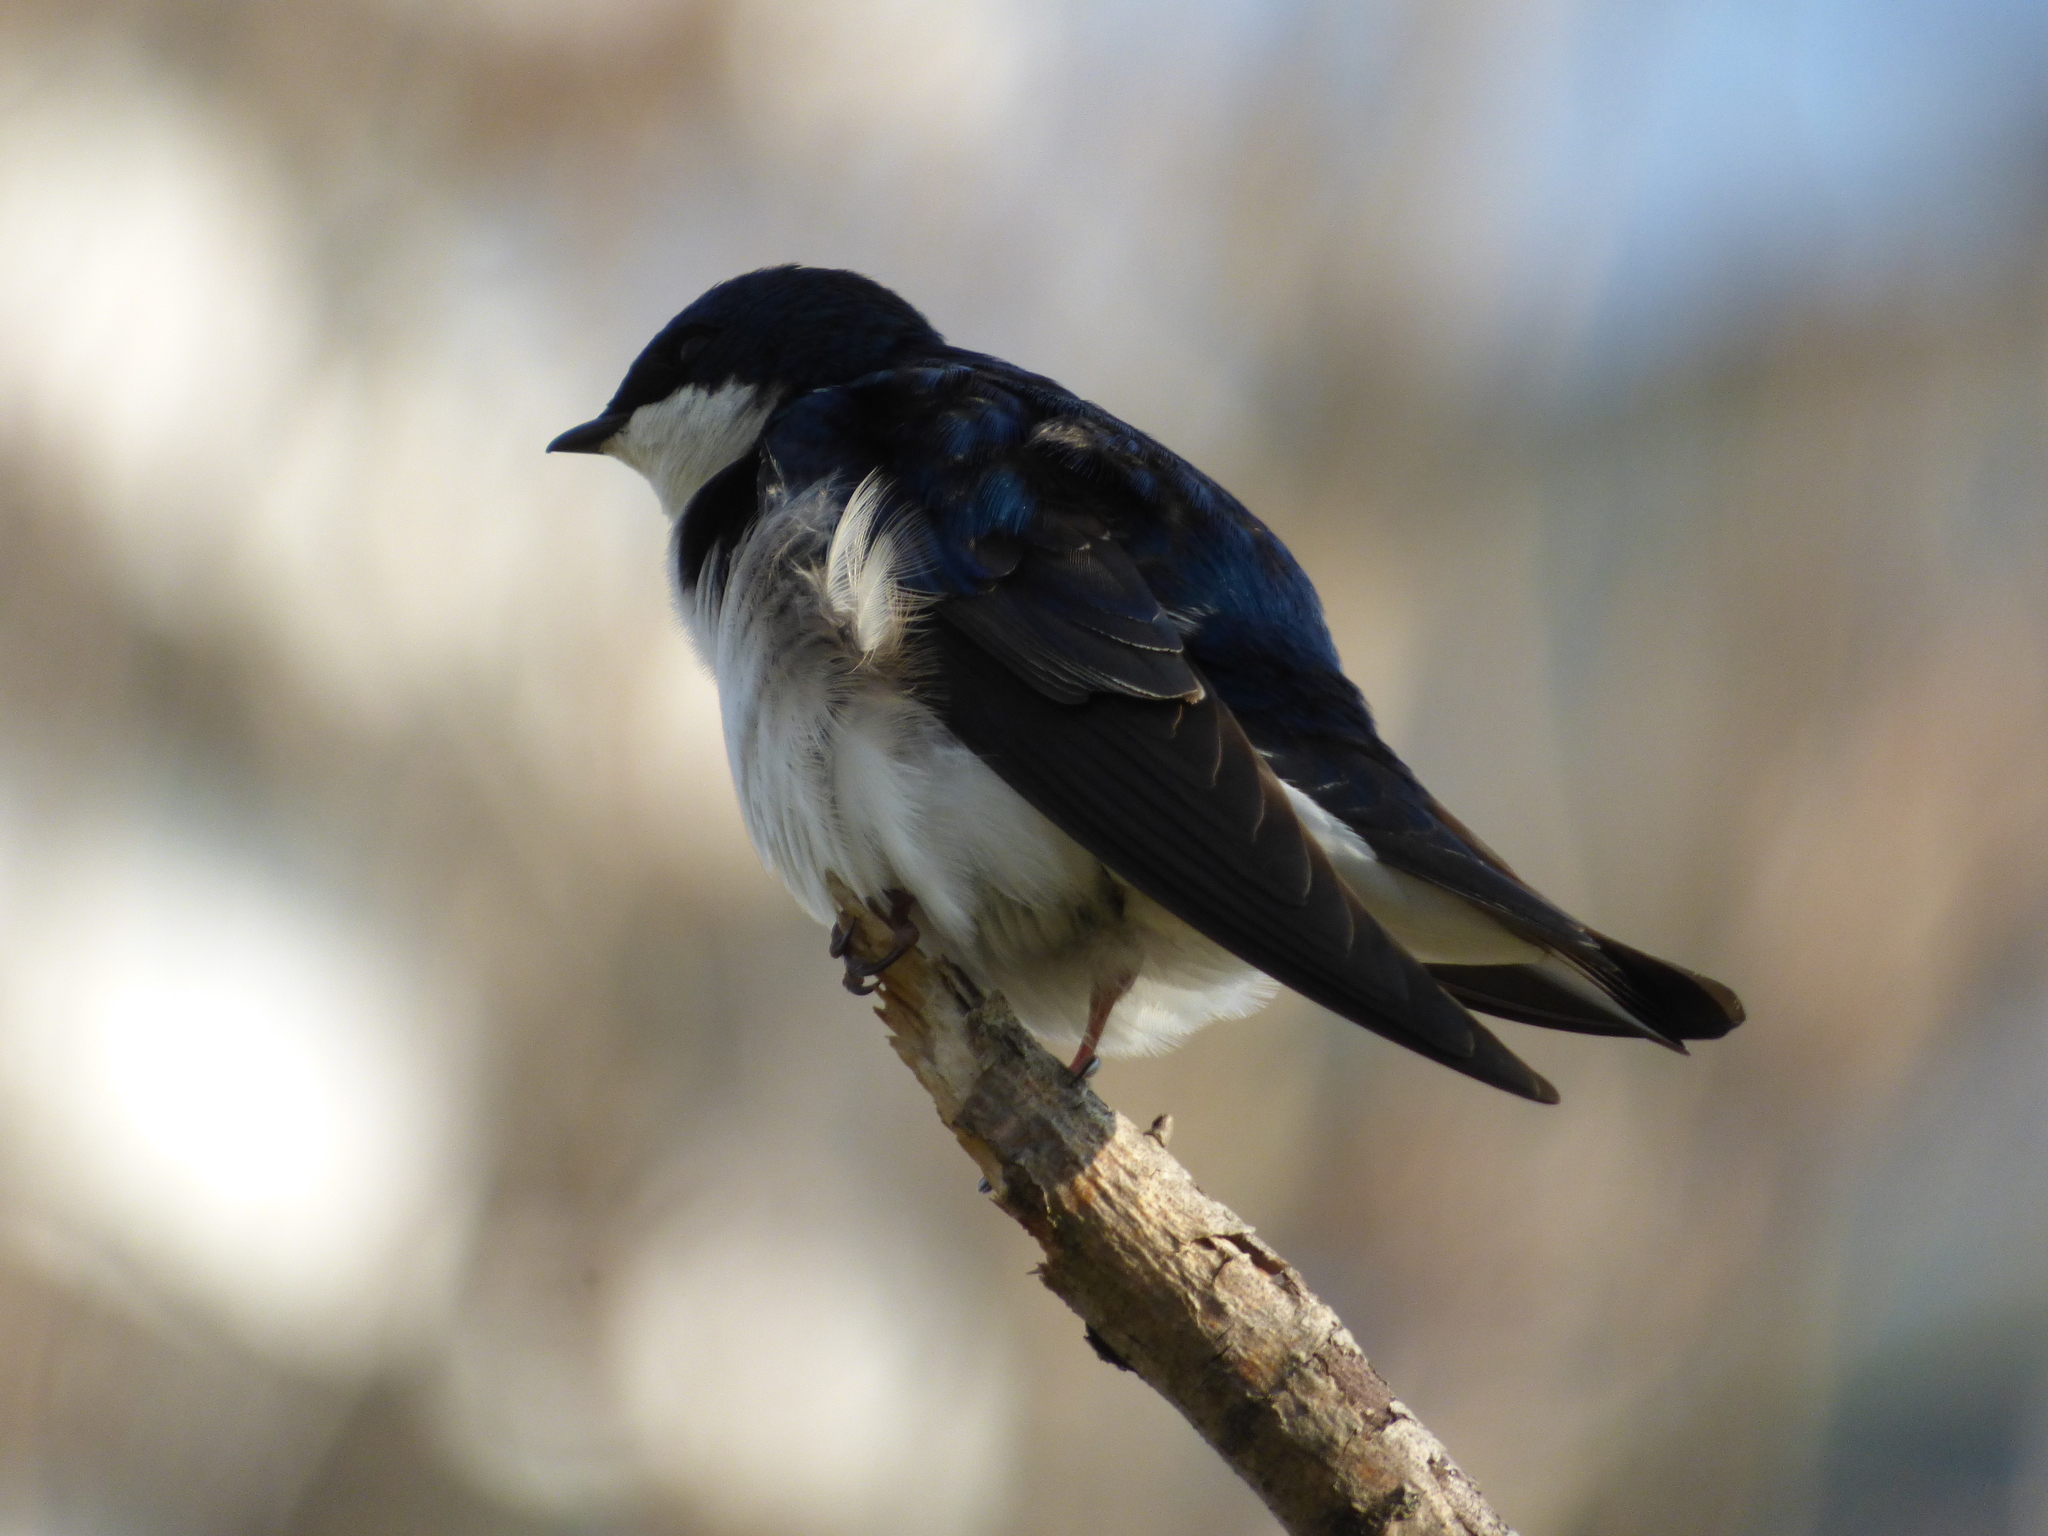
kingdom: Animalia
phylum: Chordata
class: Aves
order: Passeriformes
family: Hirundinidae
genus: Tachycineta
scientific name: Tachycineta bicolor
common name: Tree swallow
